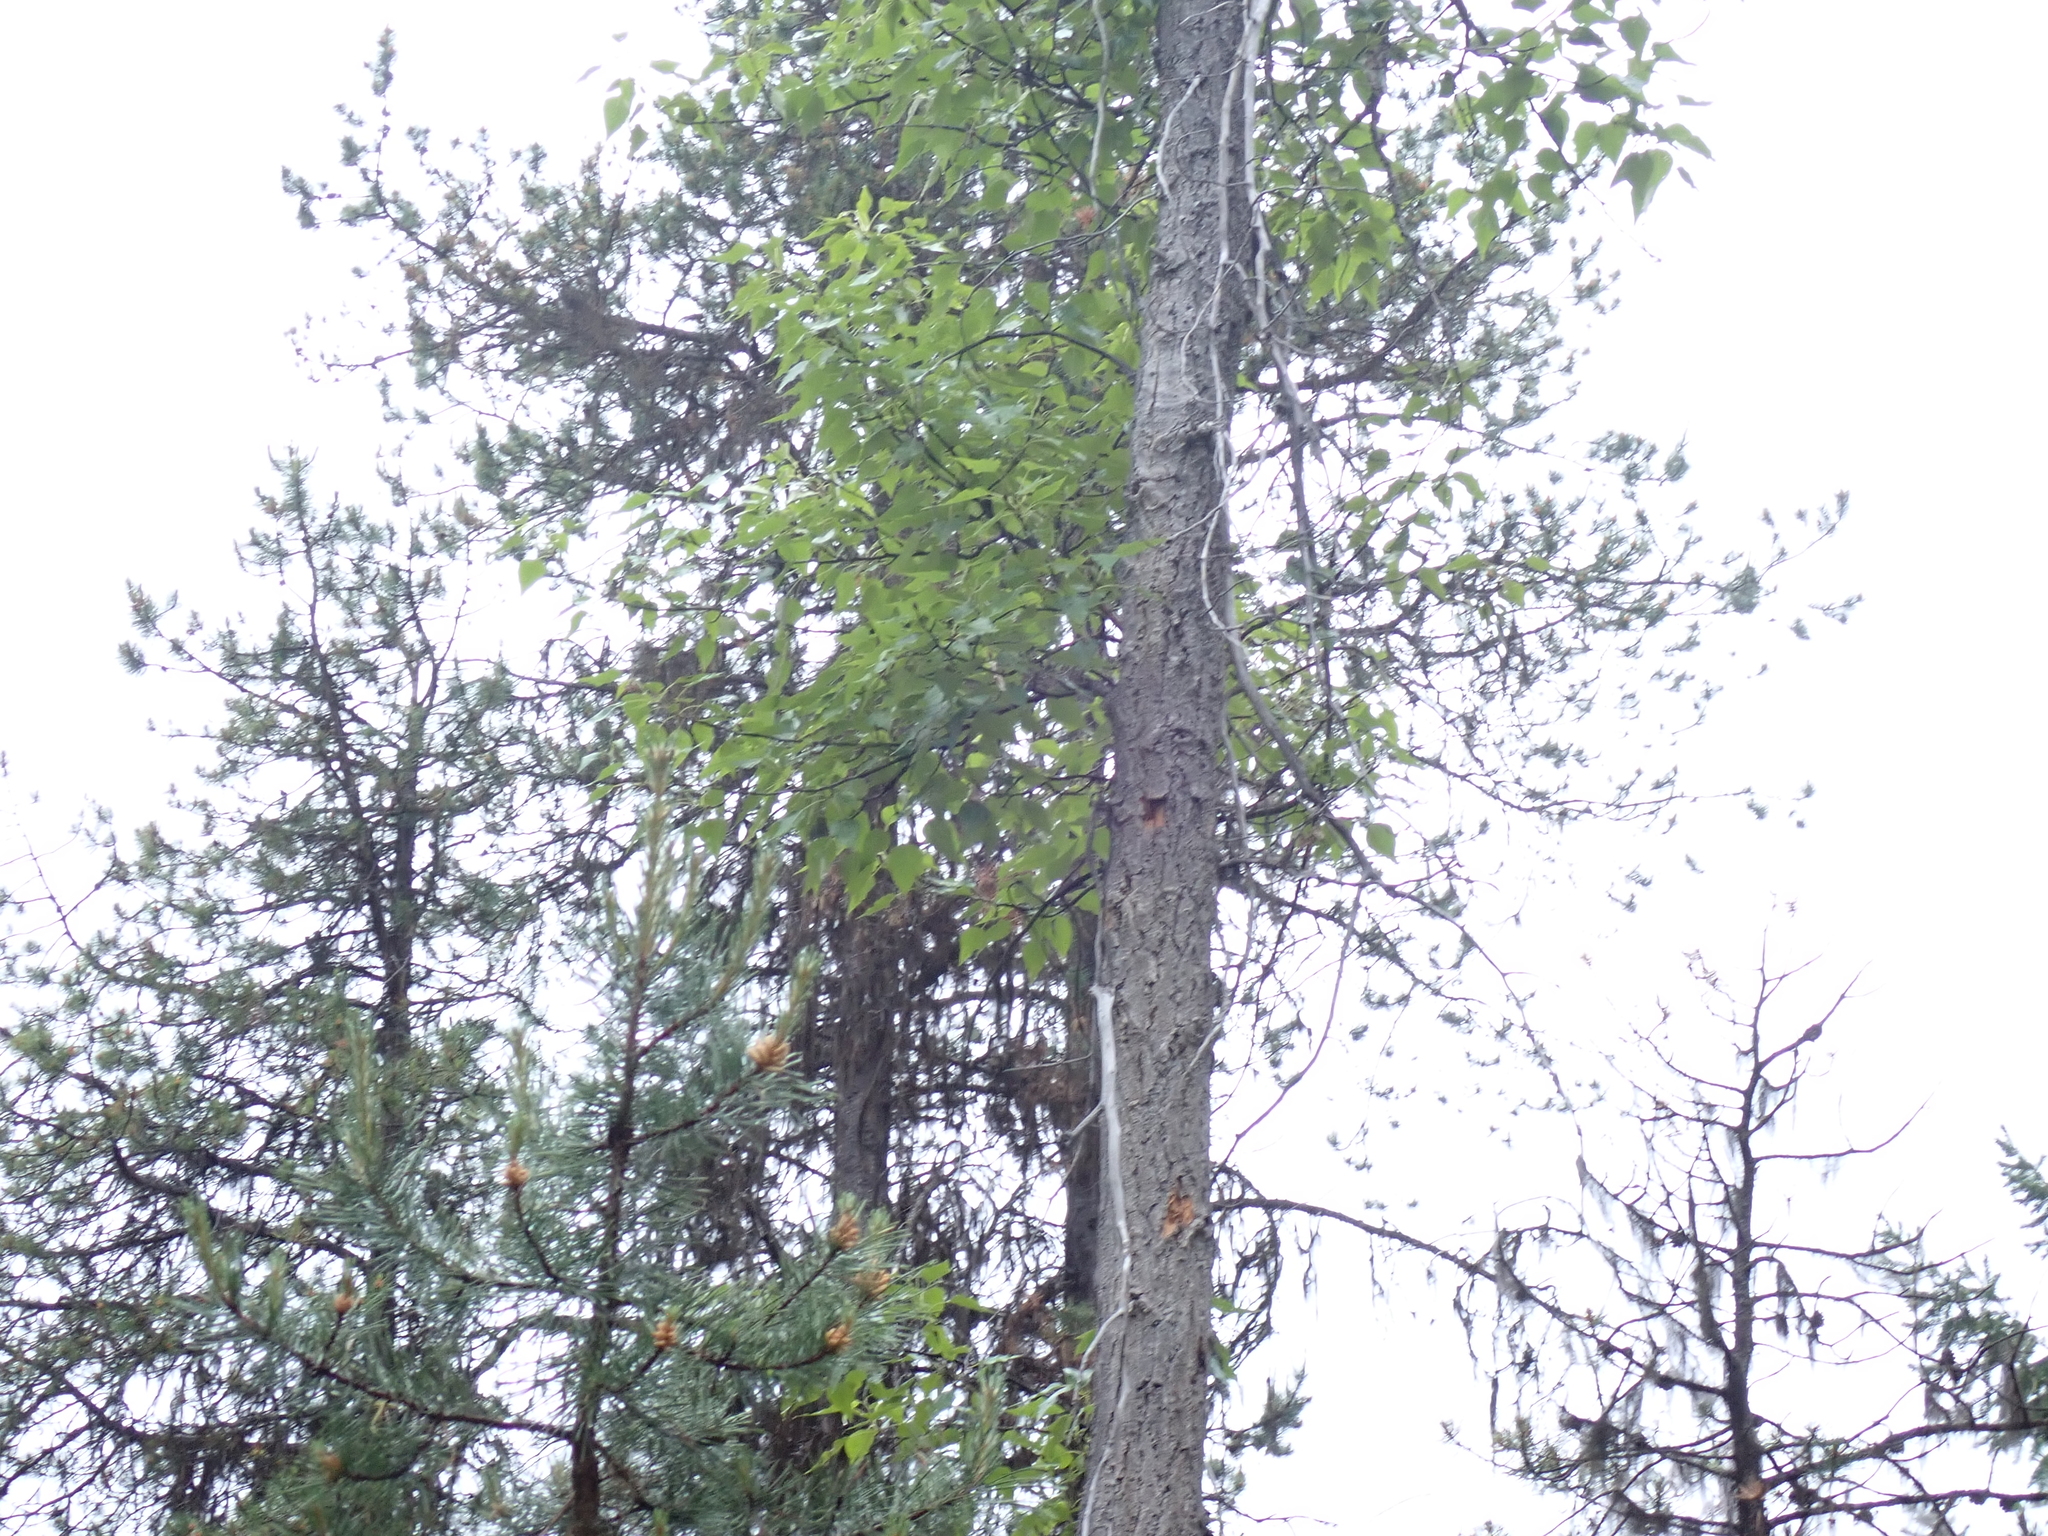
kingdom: Plantae
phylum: Tracheophyta
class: Magnoliopsida
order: Malpighiales
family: Salicaceae
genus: Populus
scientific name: Populus trichocarpa
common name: Black cottonwood
